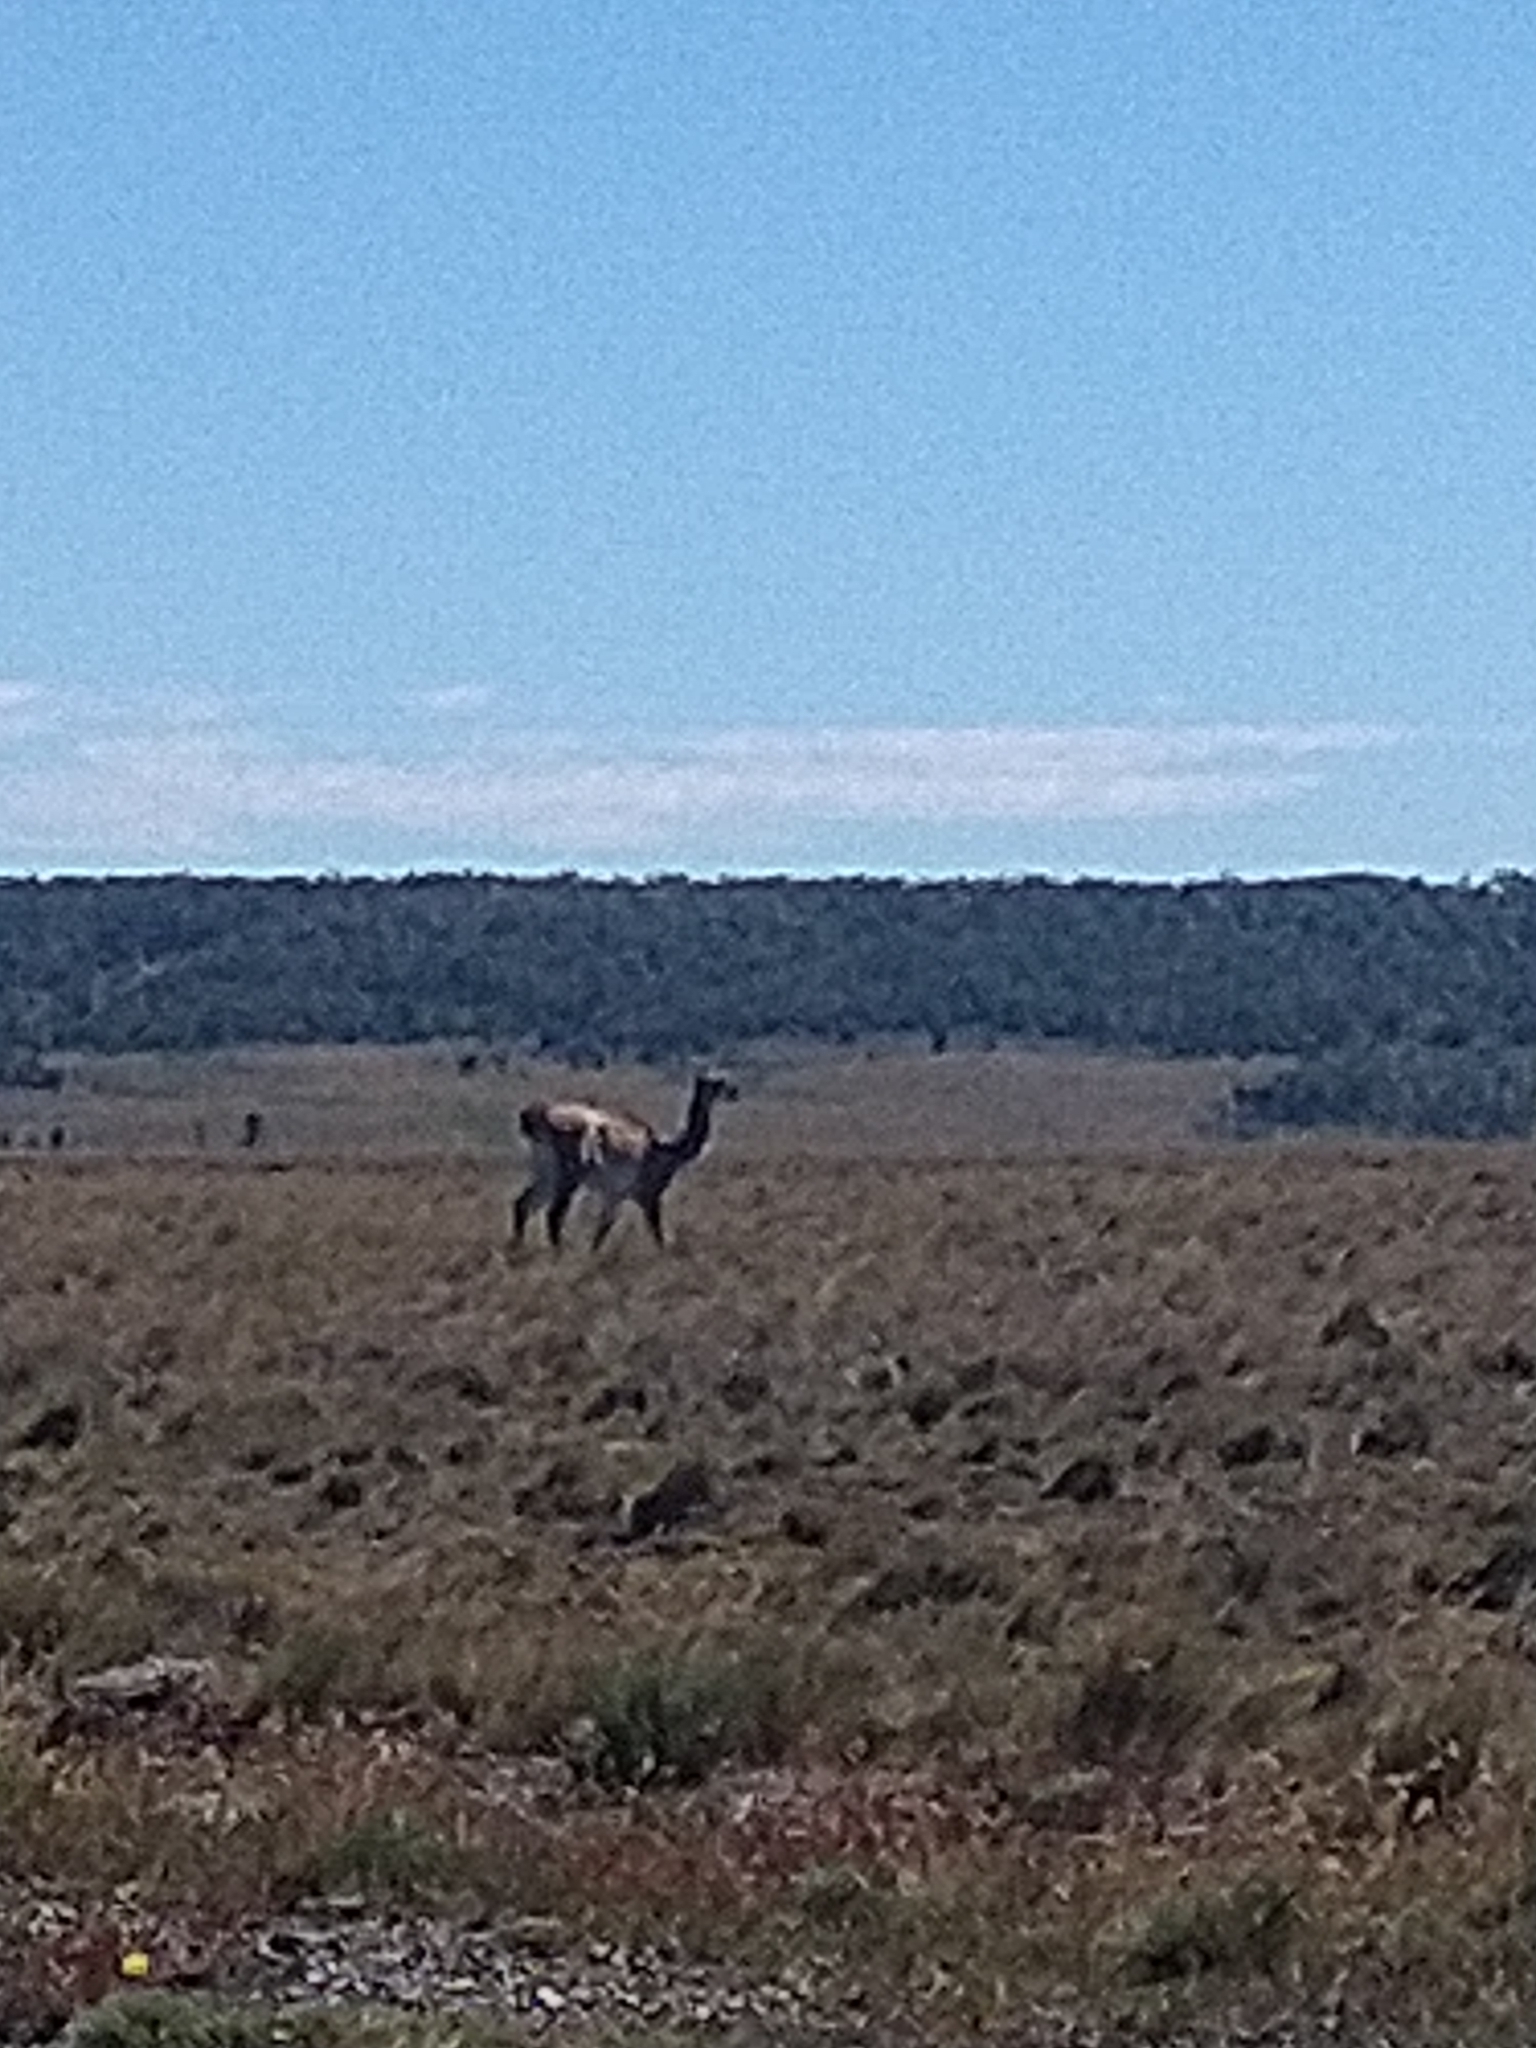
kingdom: Animalia
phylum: Chordata
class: Mammalia
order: Artiodactyla
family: Camelidae
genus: Lama
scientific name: Lama glama
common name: Llama
